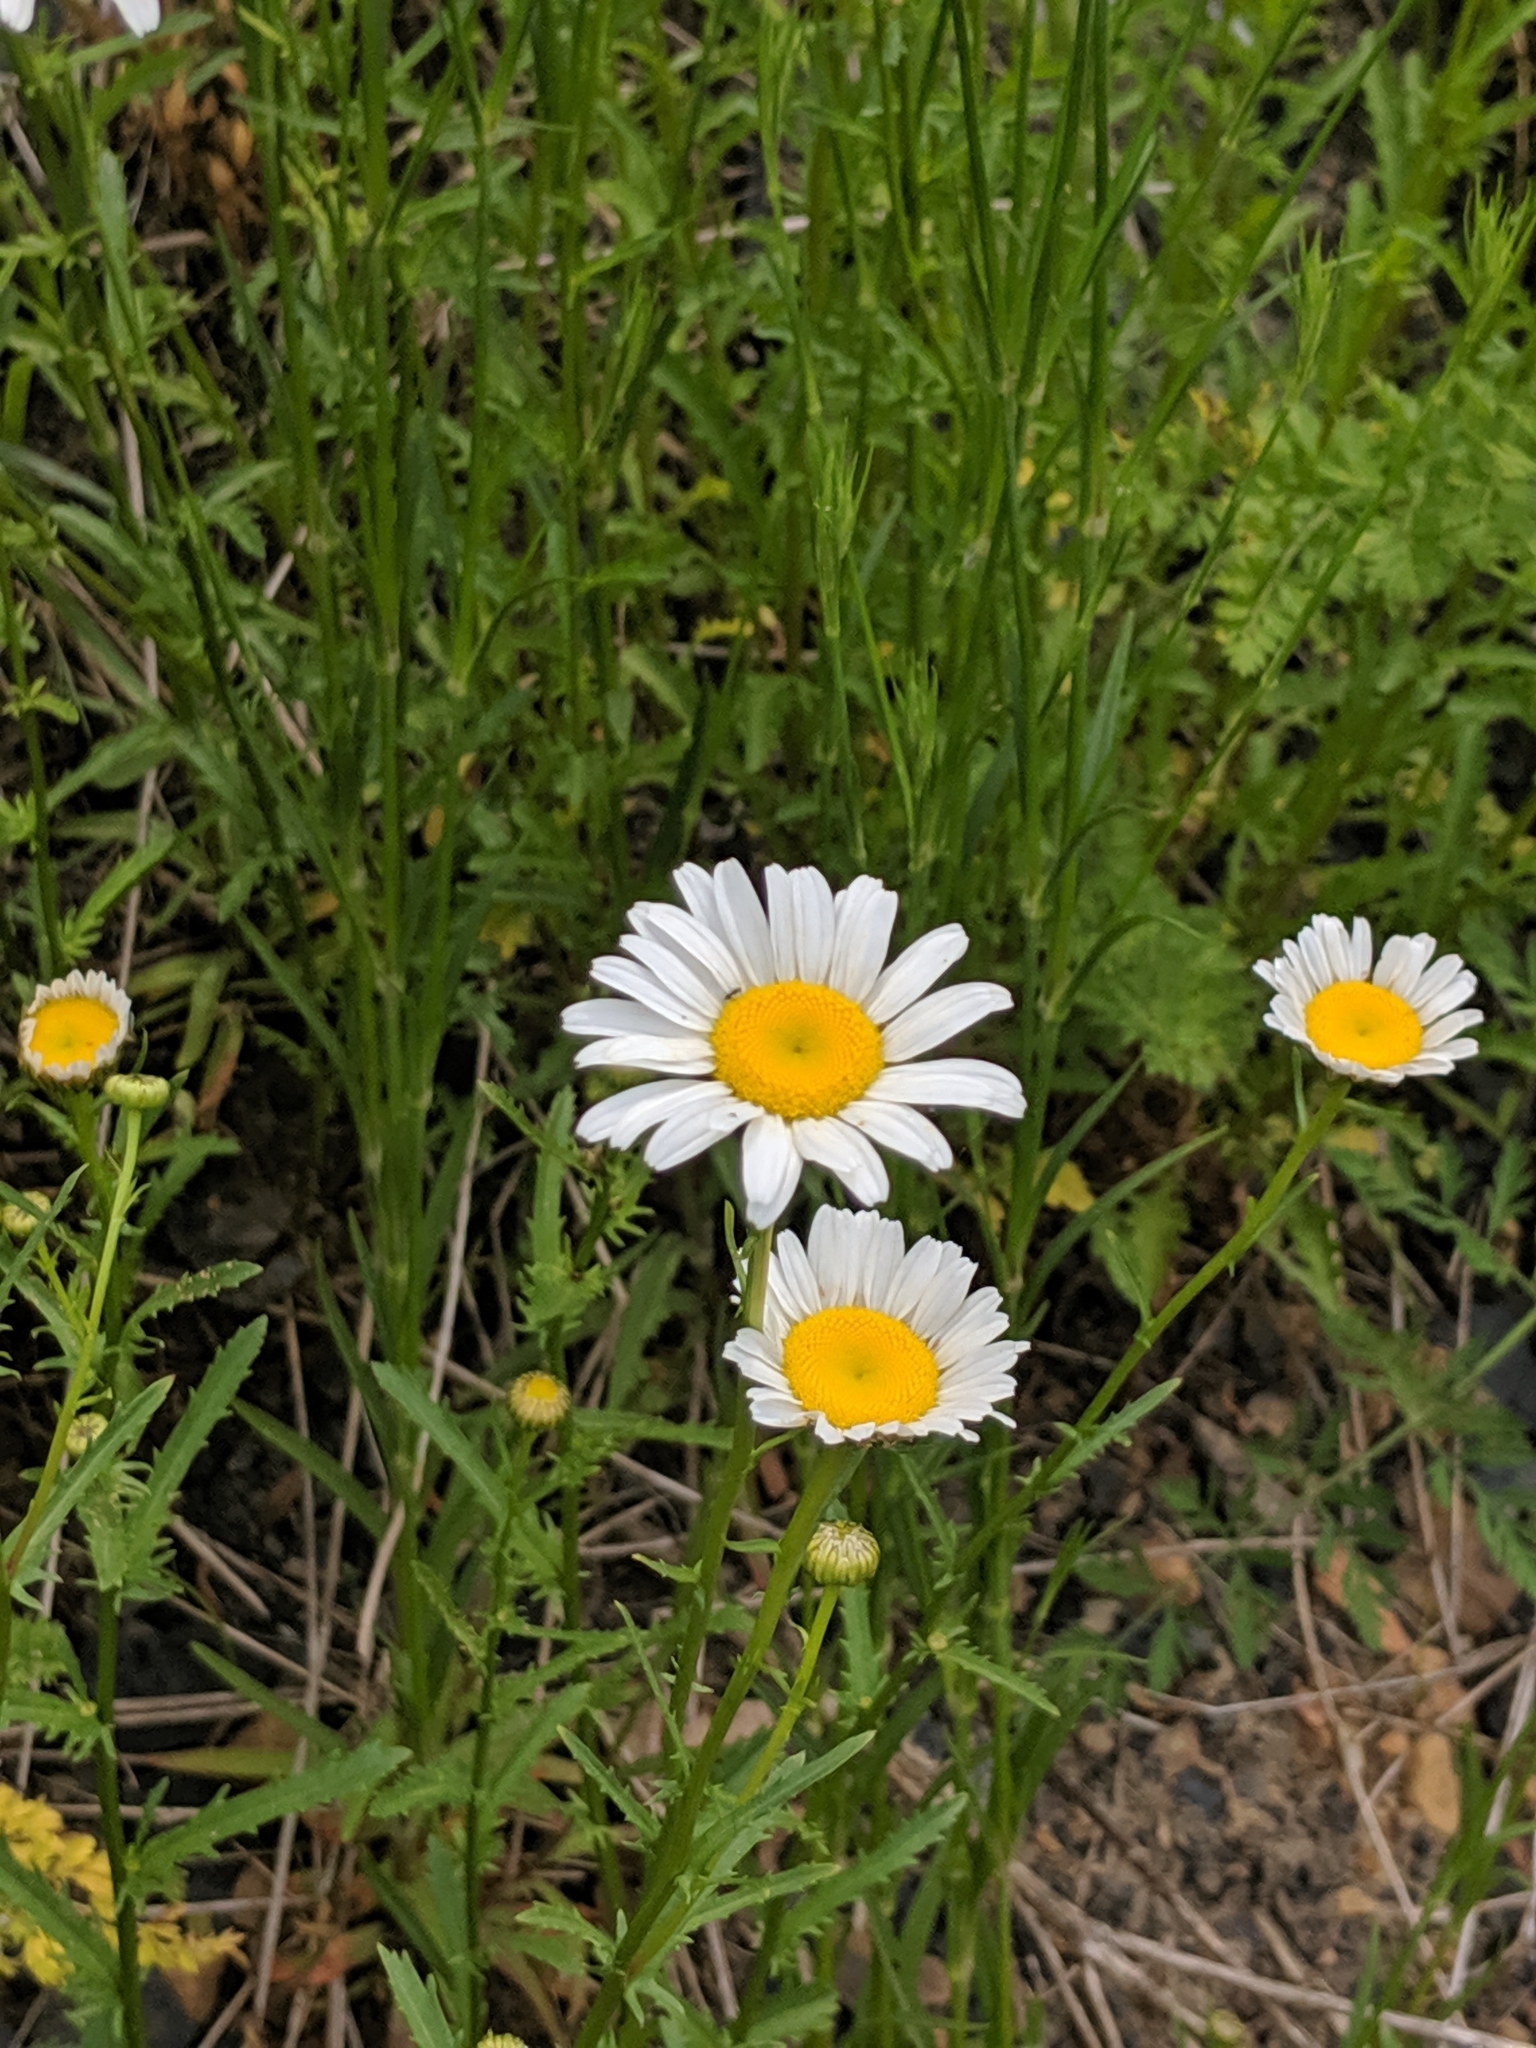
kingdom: Plantae
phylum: Tracheophyta
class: Magnoliopsida
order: Asterales
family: Asteraceae
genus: Leucanthemum
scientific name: Leucanthemum vulgare
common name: Oxeye daisy
